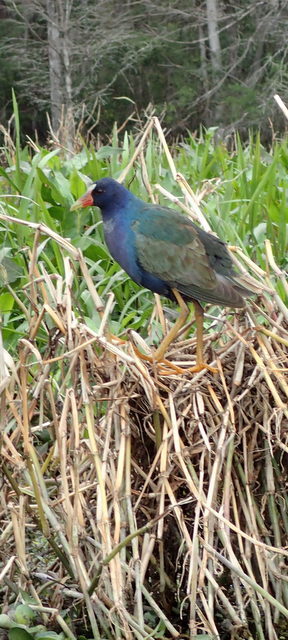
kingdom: Animalia
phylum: Chordata
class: Aves
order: Gruiformes
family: Rallidae
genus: Porphyrio
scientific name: Porphyrio martinica
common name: Purple gallinule
